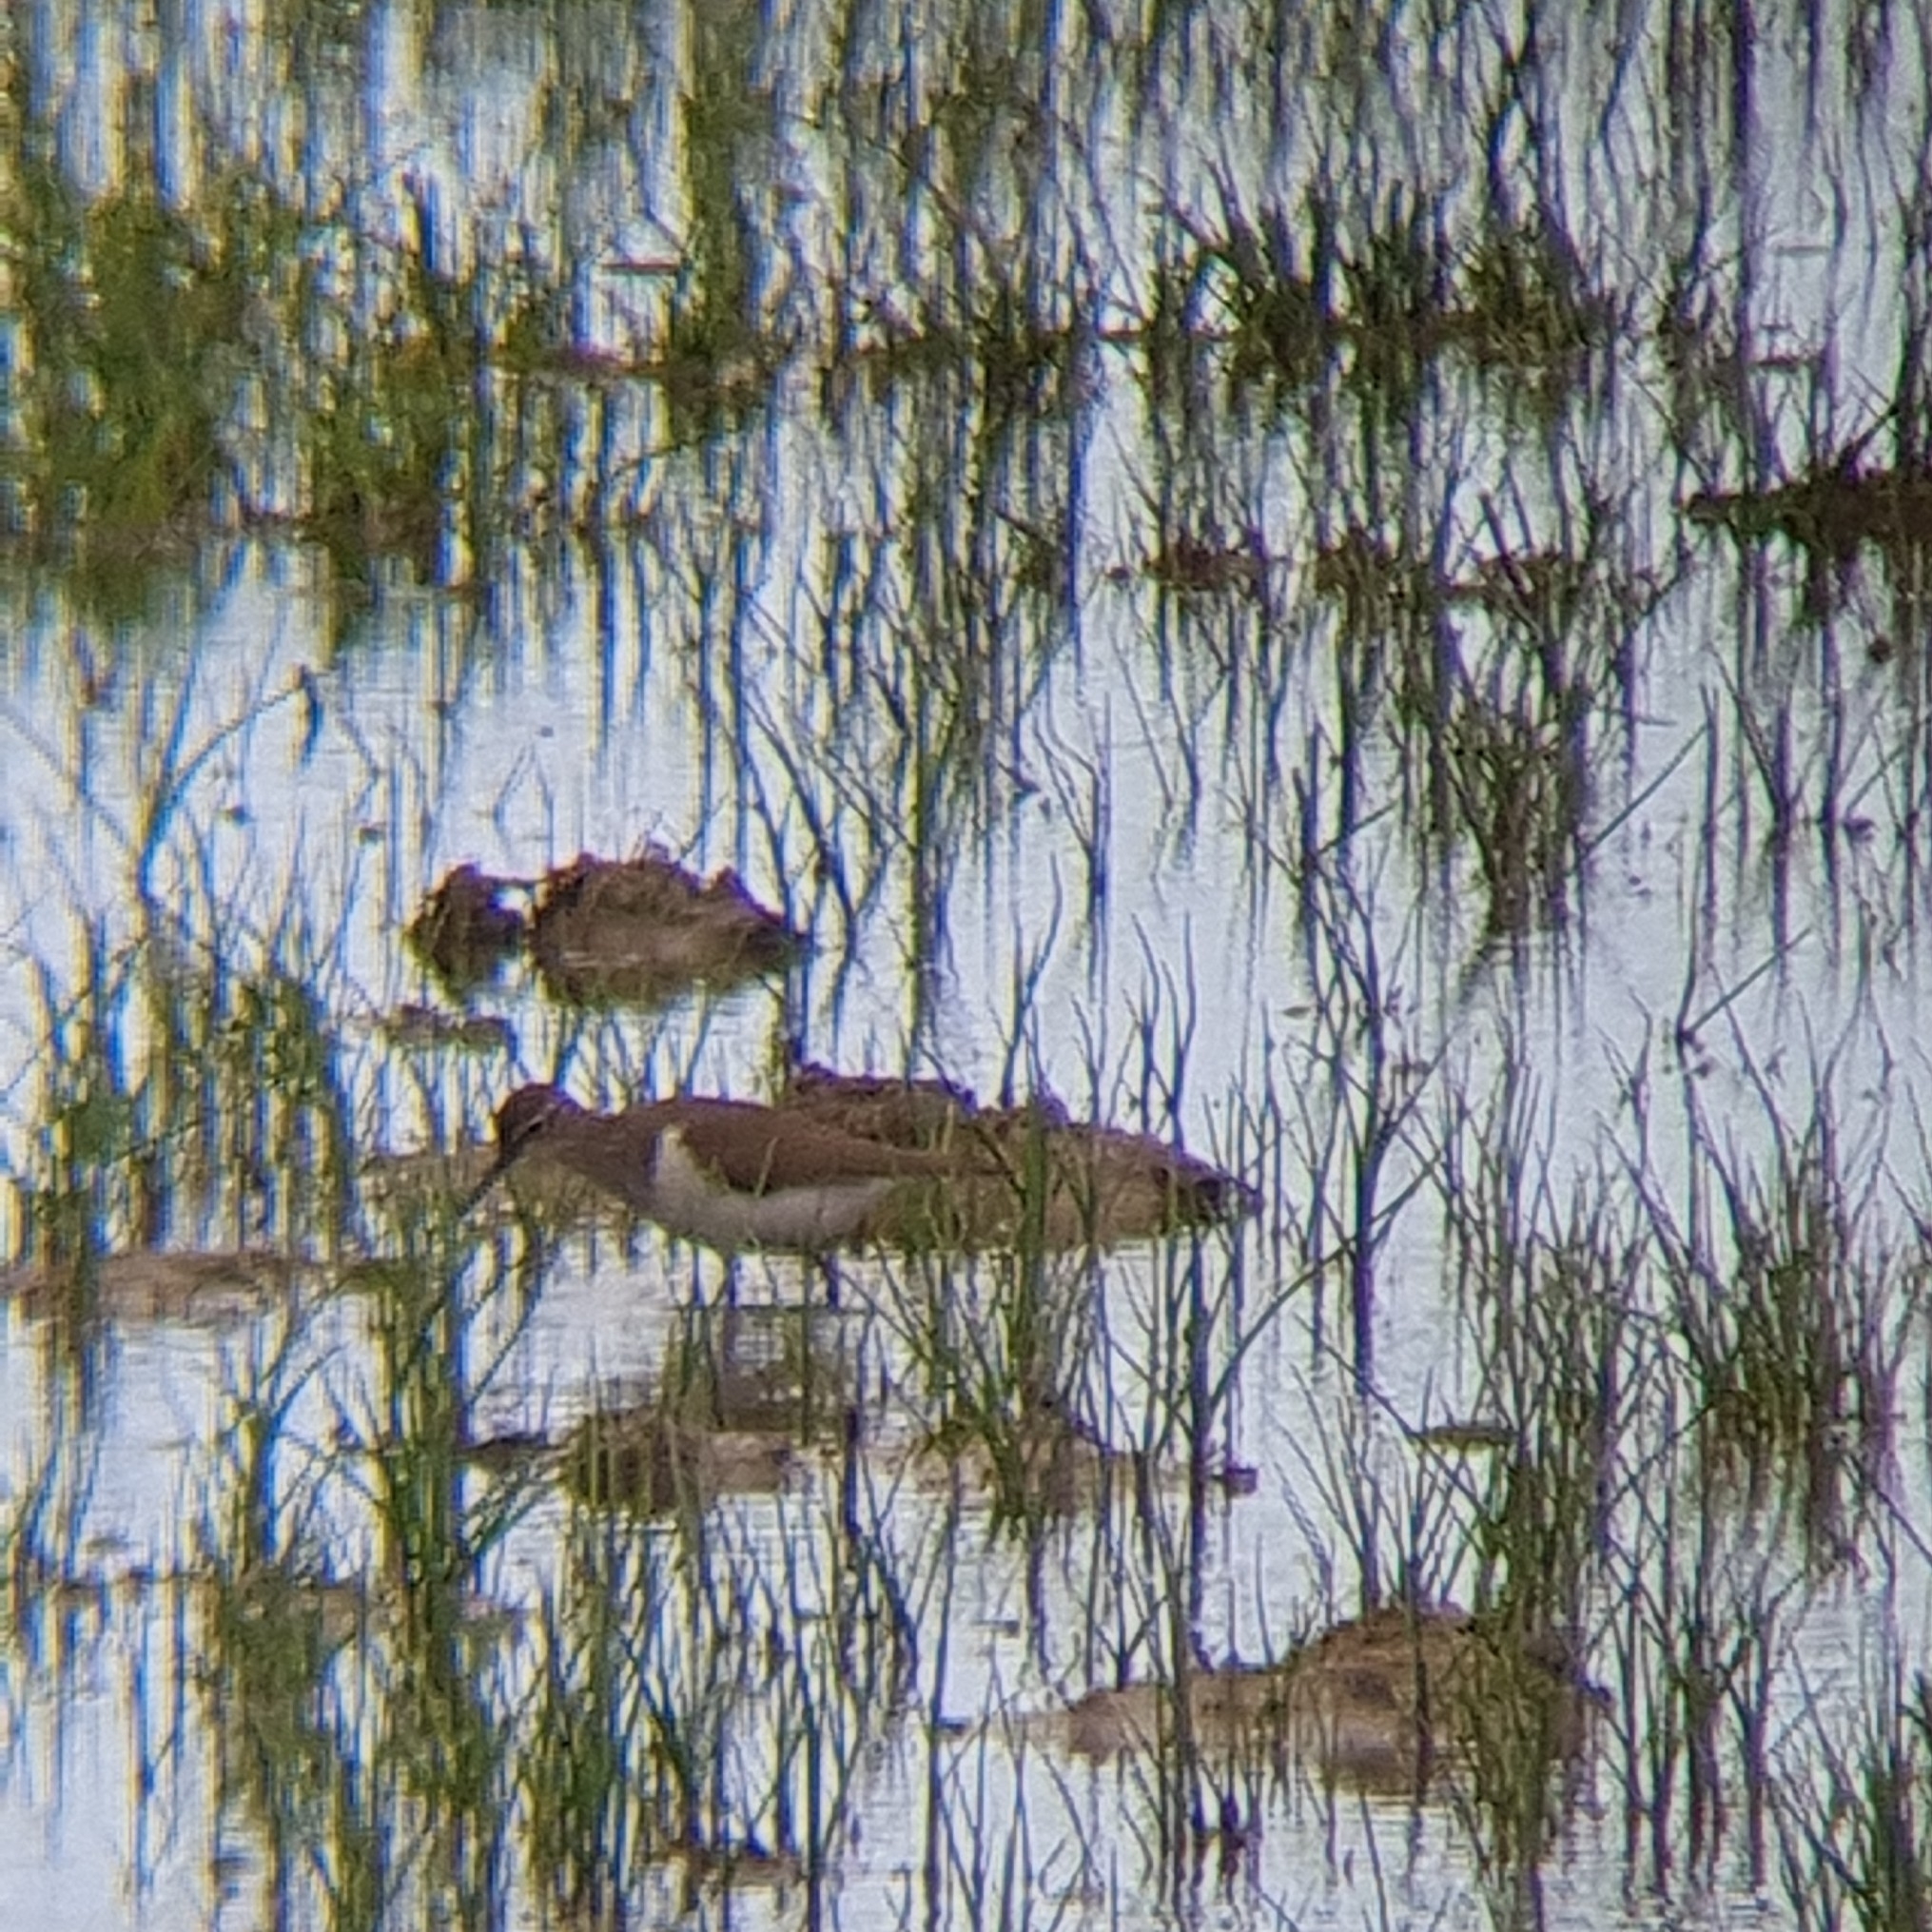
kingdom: Animalia
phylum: Chordata
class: Aves
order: Charadriiformes
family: Scolopacidae
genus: Actitis
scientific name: Actitis hypoleucos
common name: Common sandpiper
